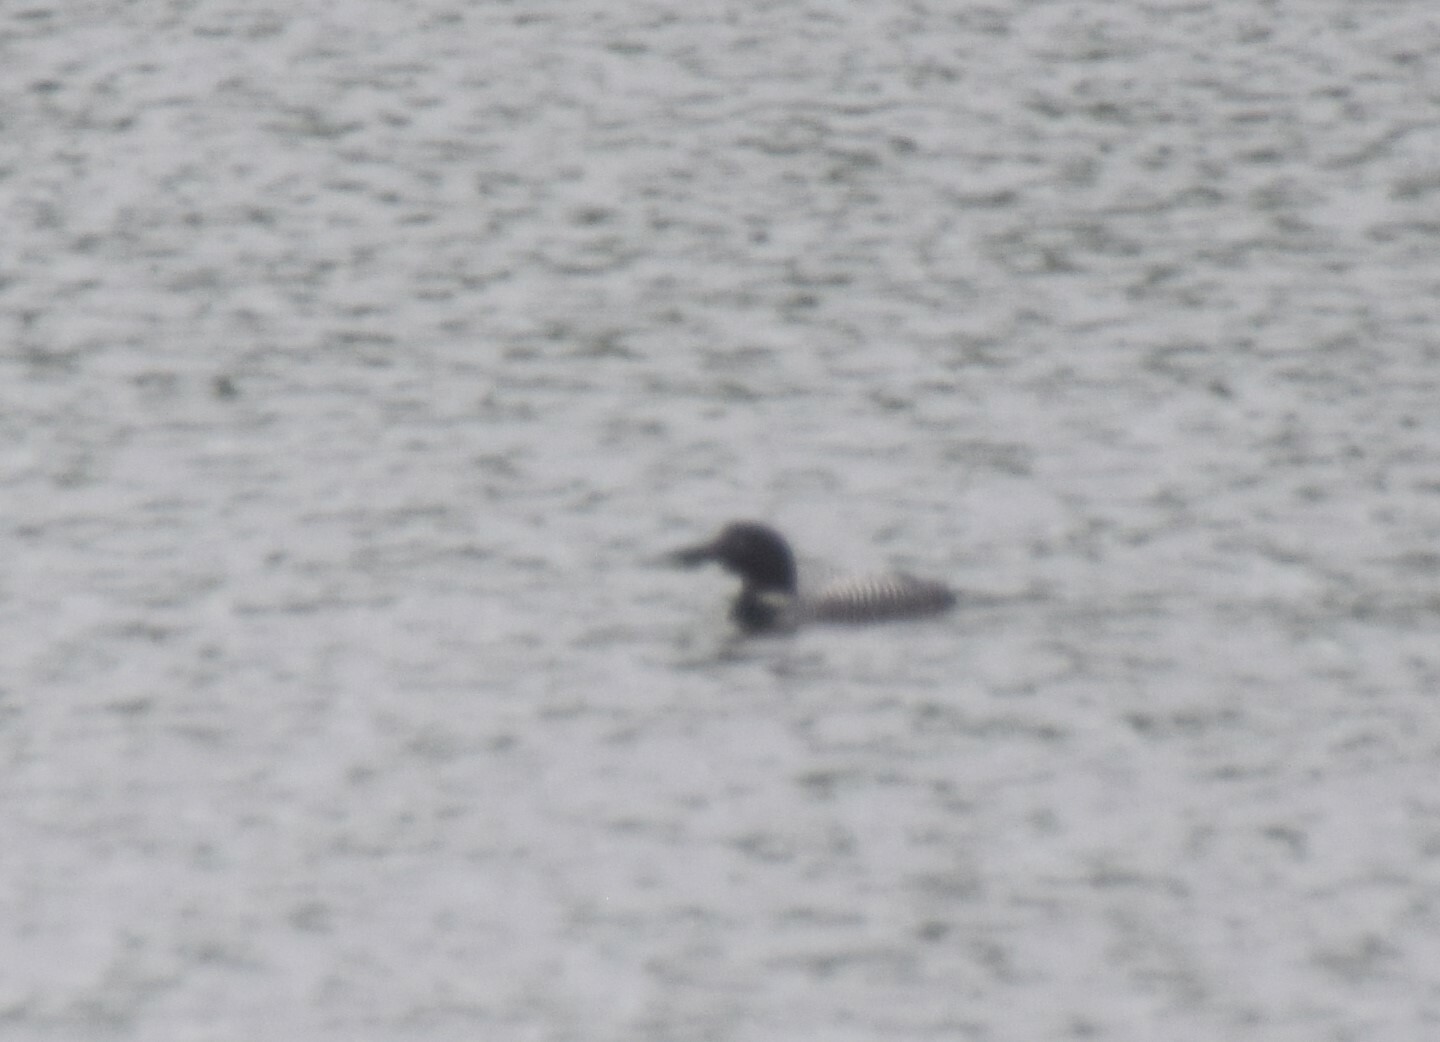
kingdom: Animalia
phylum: Chordata
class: Aves
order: Gaviiformes
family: Gaviidae
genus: Gavia
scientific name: Gavia immer
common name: Common loon
